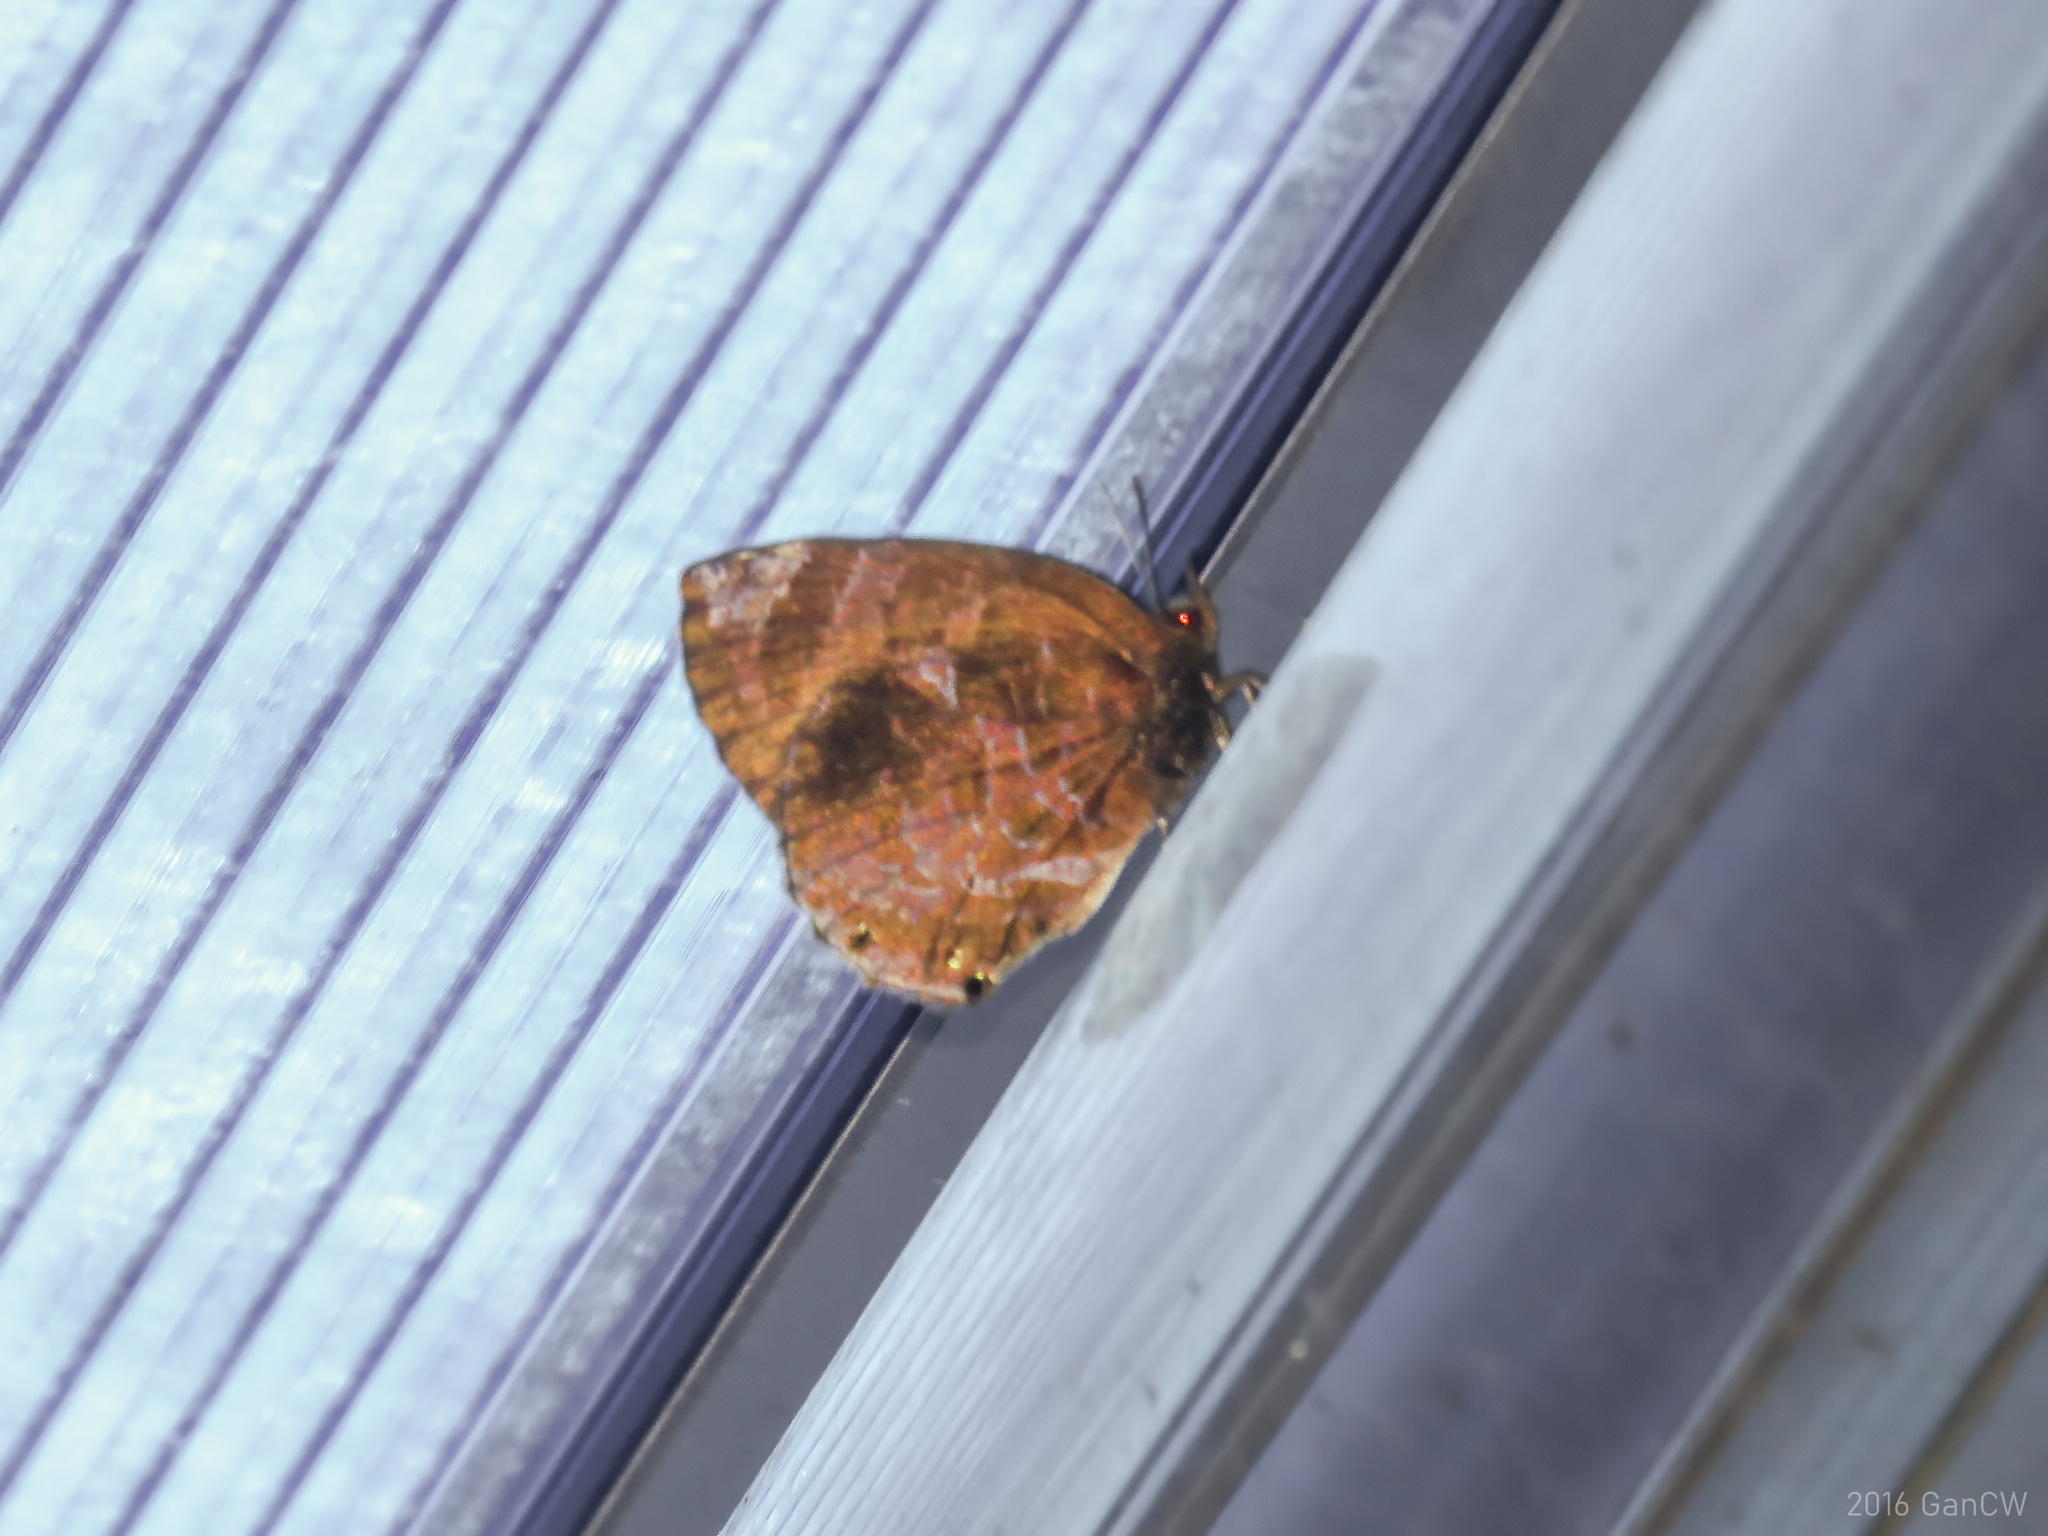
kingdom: Animalia
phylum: Arthropoda
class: Insecta
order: Lepidoptera
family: Lycaenidae
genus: Flos
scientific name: Flos
